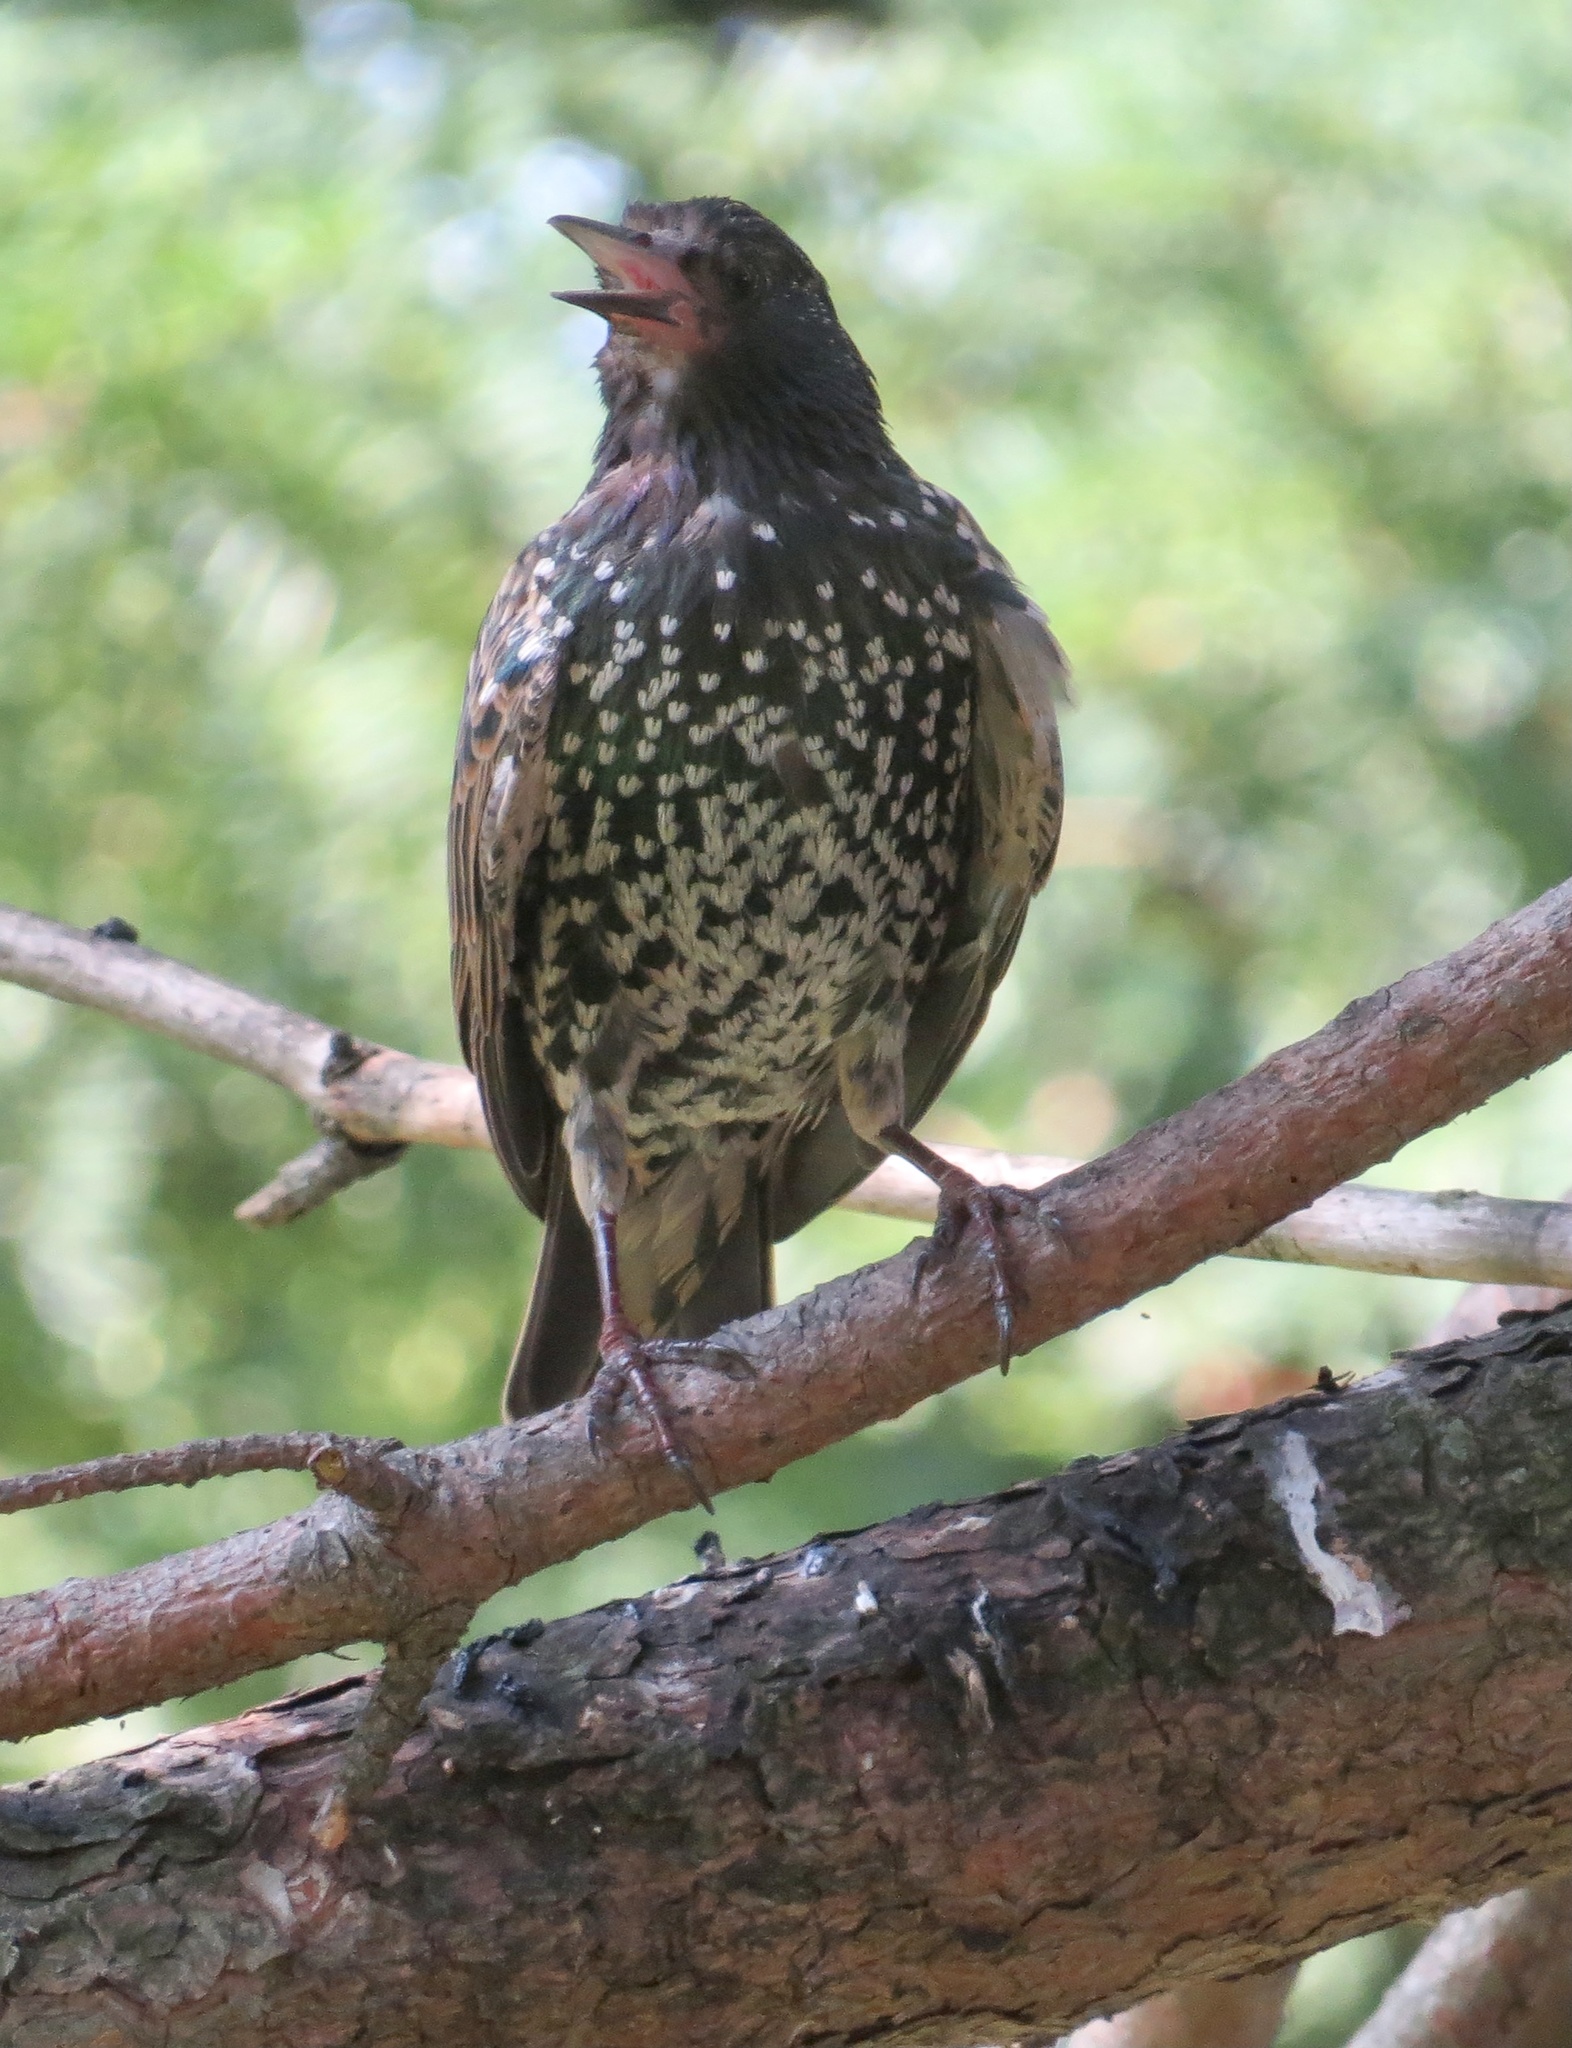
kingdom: Animalia
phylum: Chordata
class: Aves
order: Passeriformes
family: Sturnidae
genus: Sturnus
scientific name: Sturnus vulgaris
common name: Common starling
